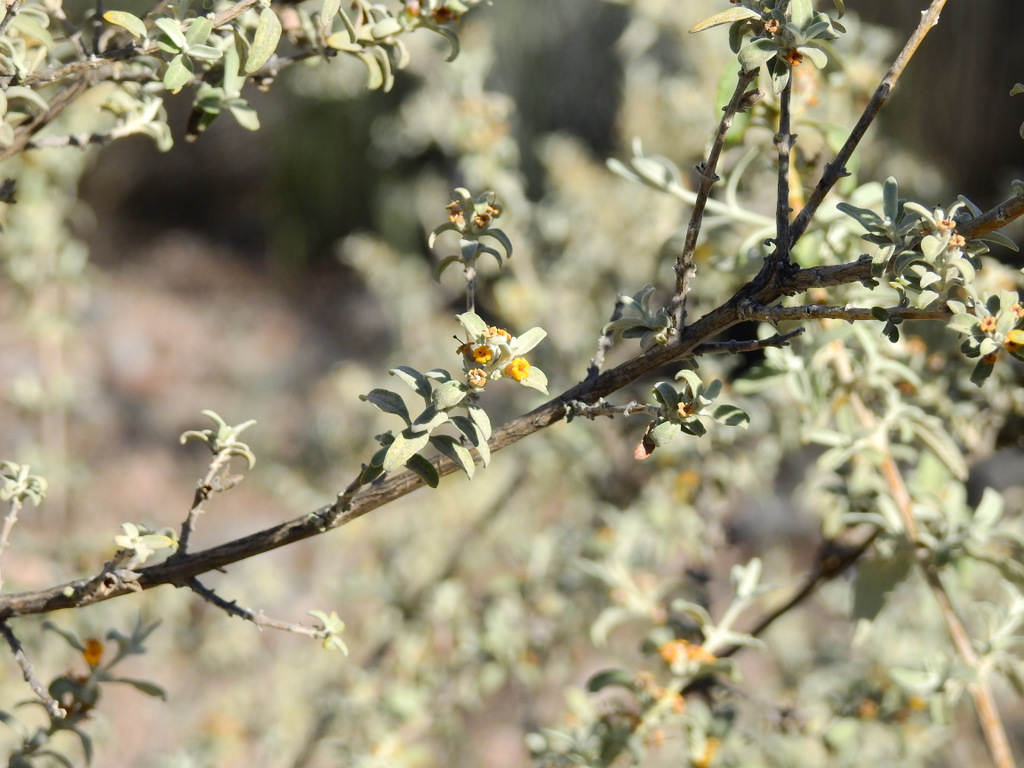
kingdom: Plantae
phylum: Tracheophyta
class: Magnoliopsida
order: Lamiales
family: Scrophulariaceae
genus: Buddleja
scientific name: Buddleja mendozensis
